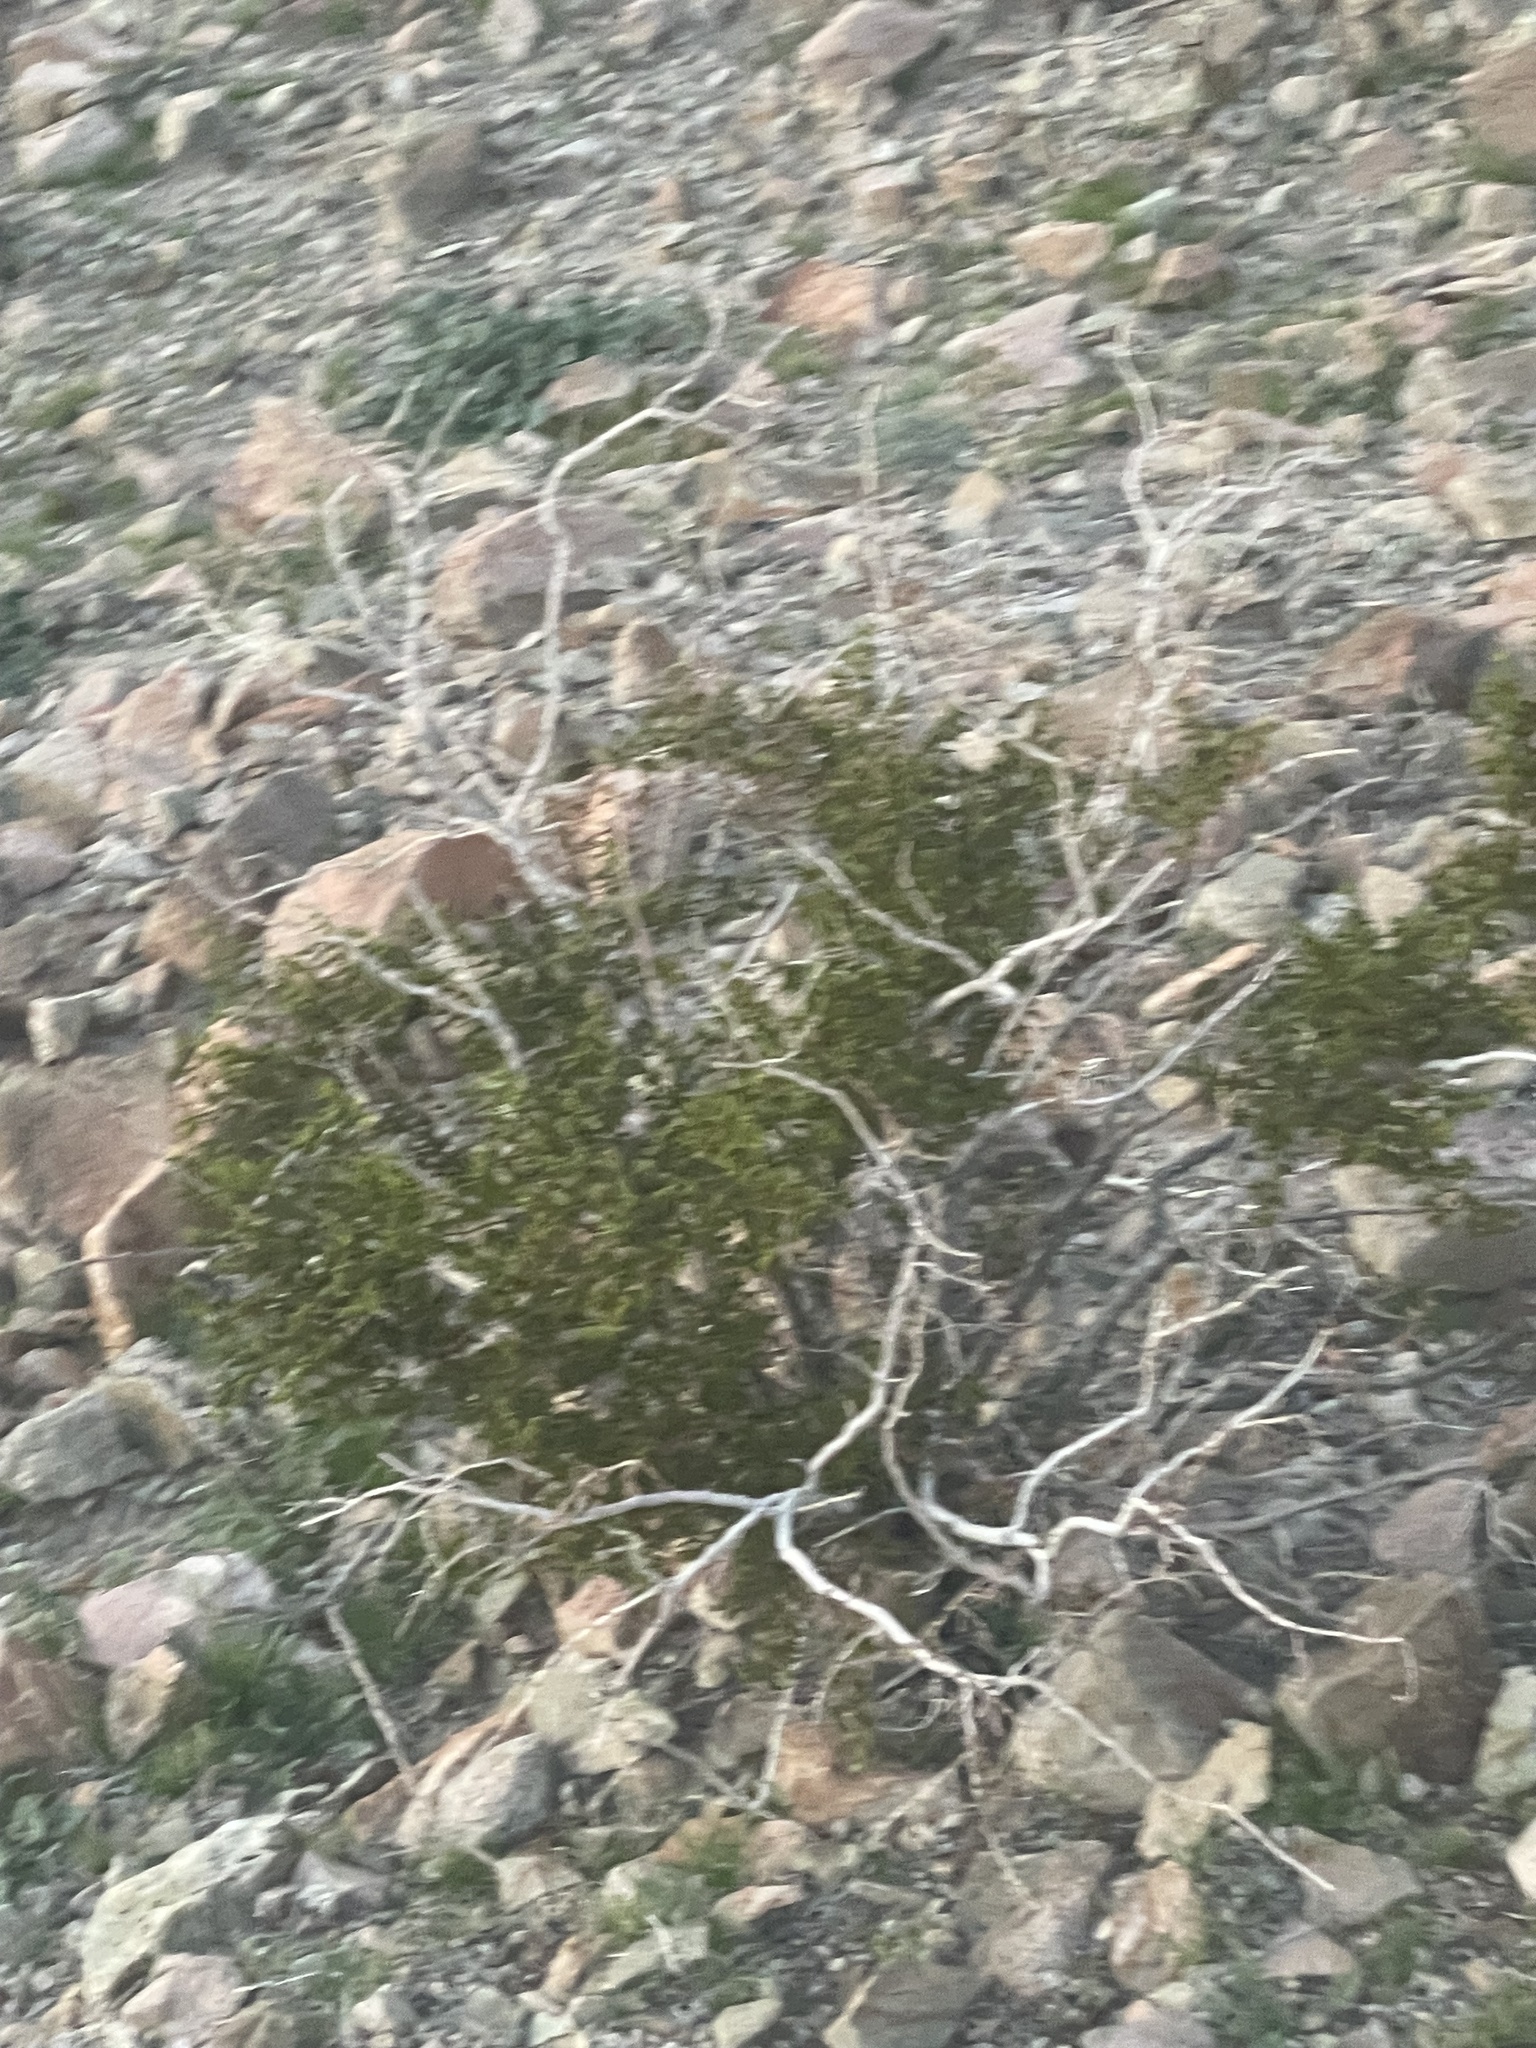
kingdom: Plantae
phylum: Tracheophyta
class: Magnoliopsida
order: Zygophyllales
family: Zygophyllaceae
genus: Larrea
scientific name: Larrea tridentata
